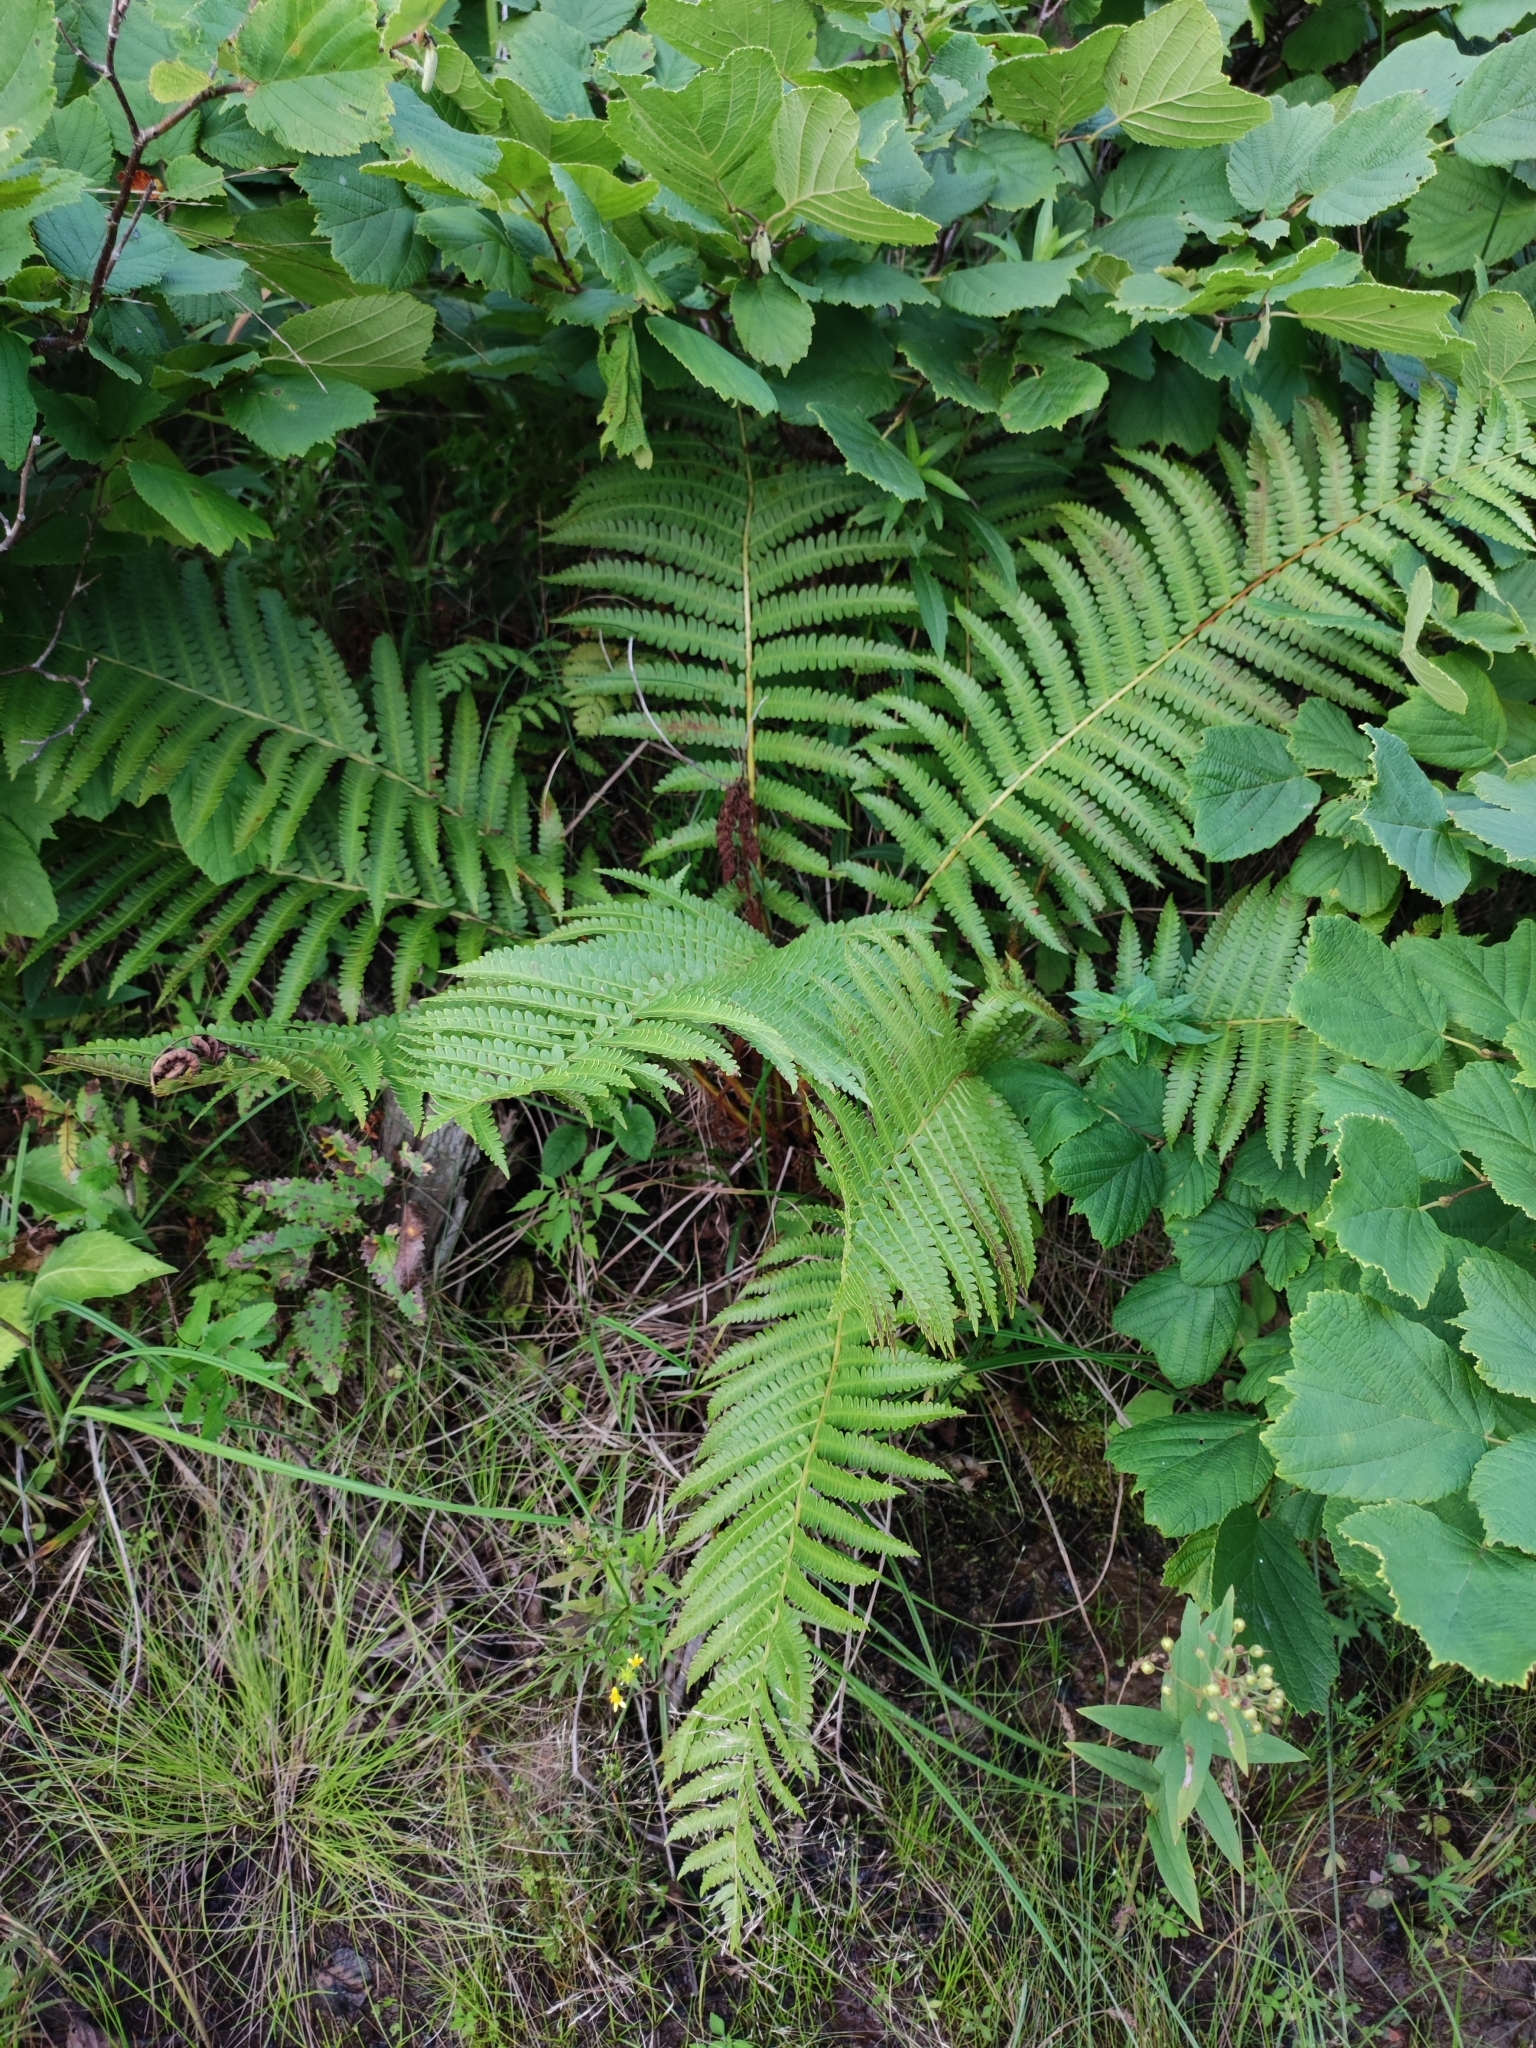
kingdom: Plantae
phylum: Tracheophyta
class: Polypodiopsida
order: Osmundales
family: Osmundaceae
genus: Osmundastrum
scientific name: Osmundastrum cinnamomeum
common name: Cinnamon fern
